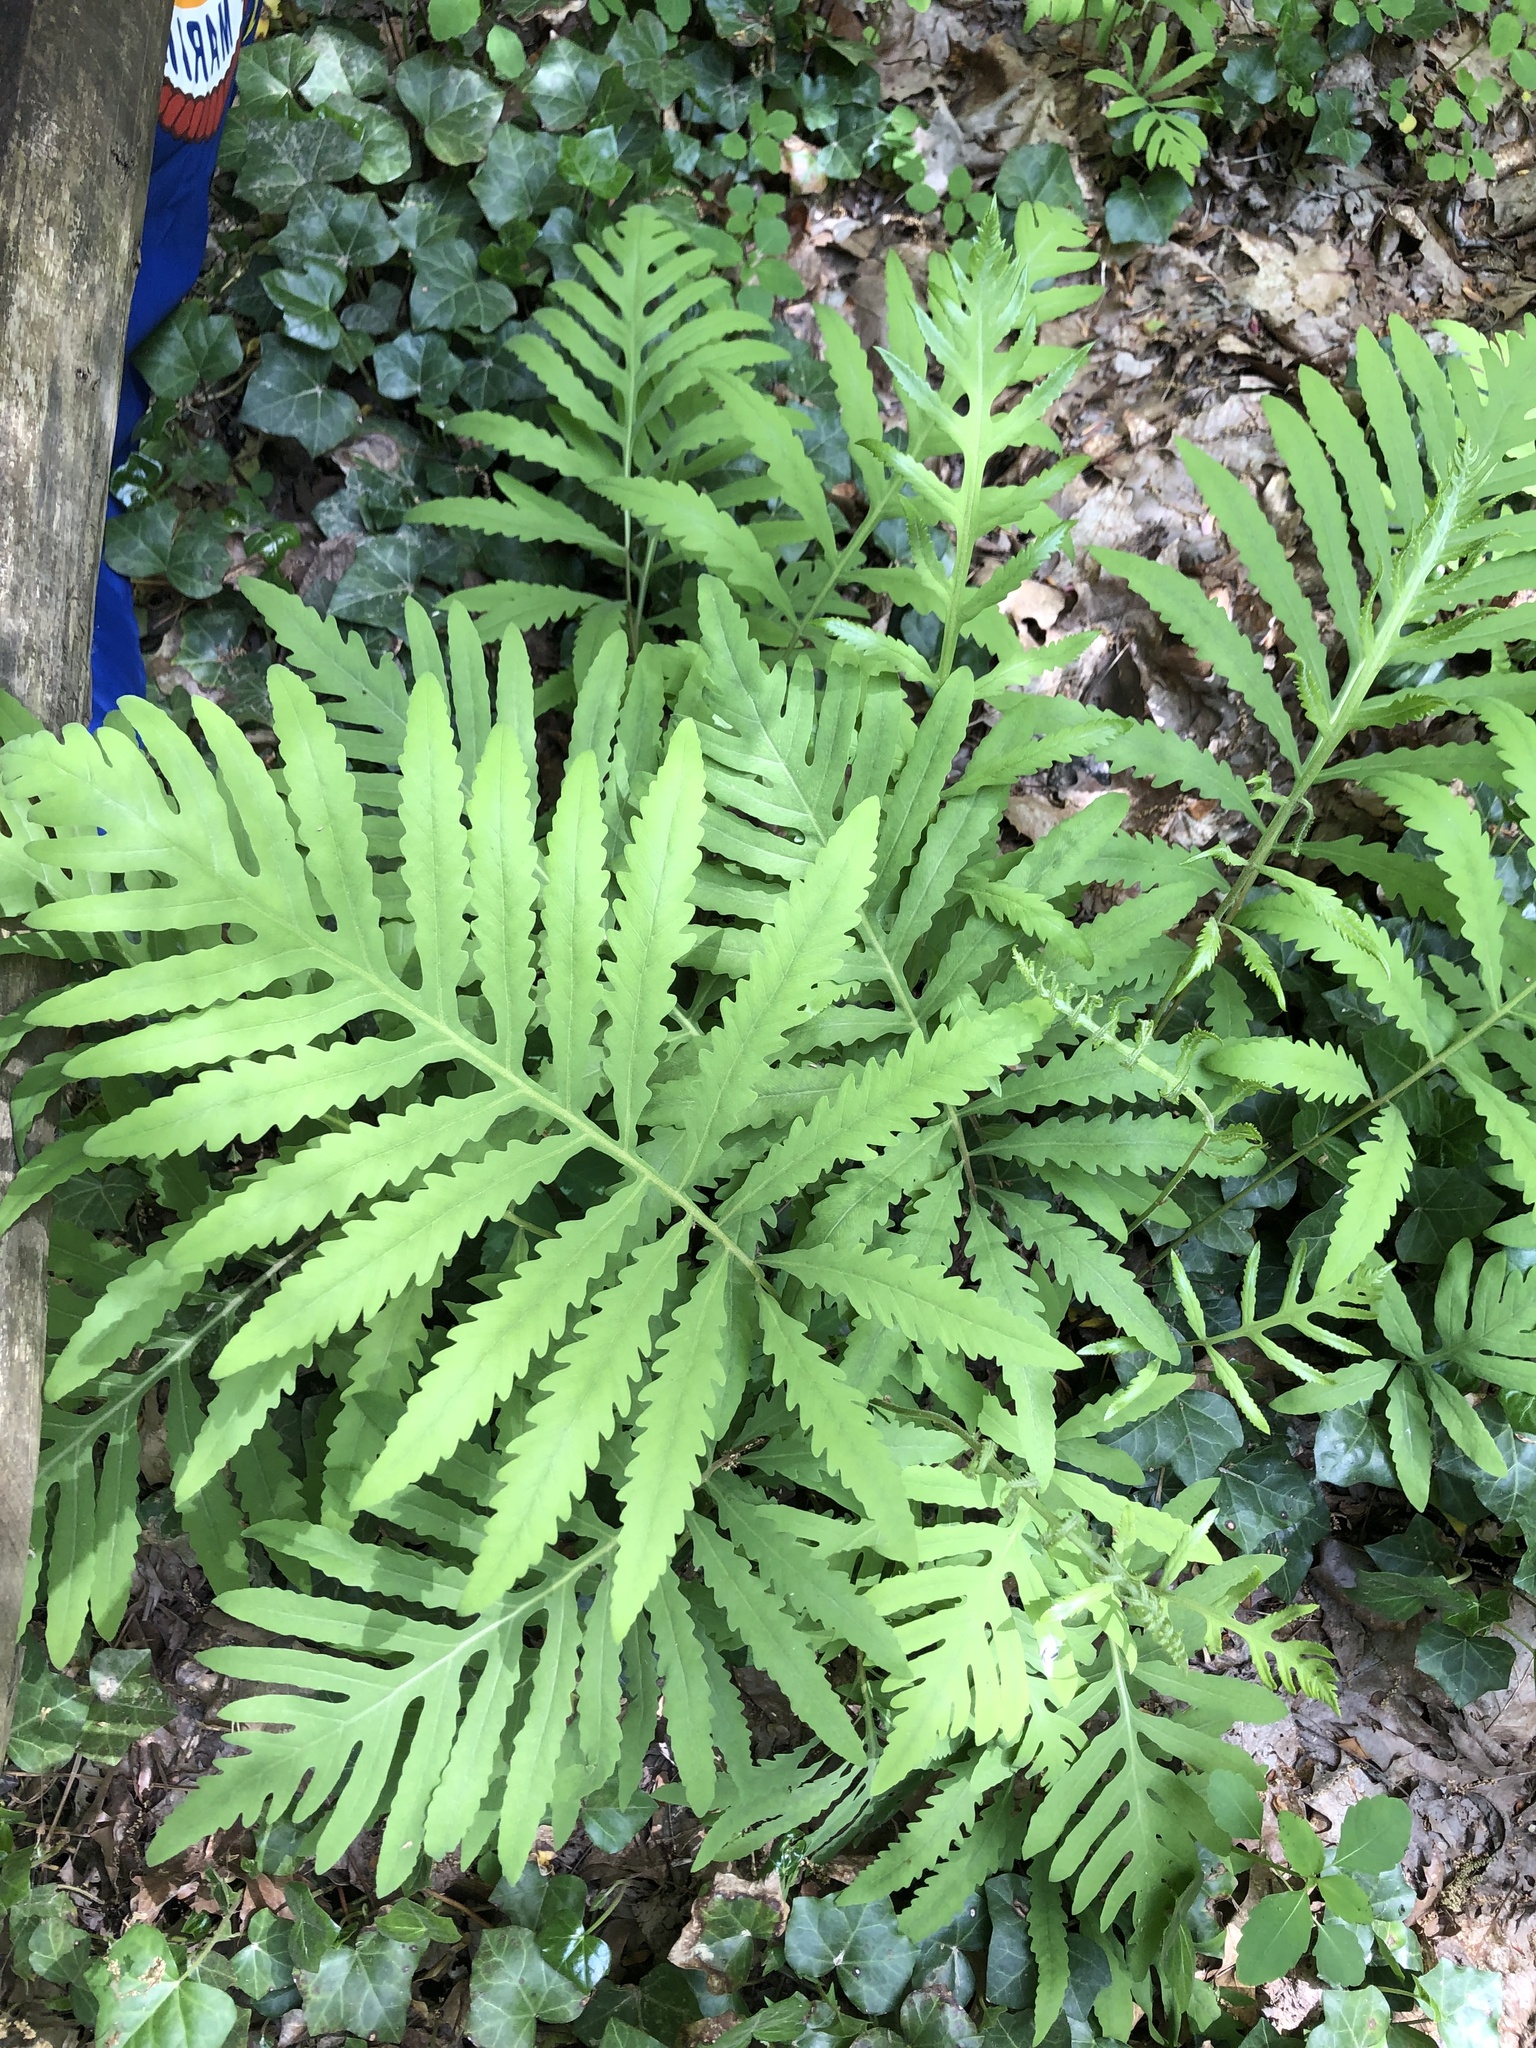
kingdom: Plantae
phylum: Tracheophyta
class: Polypodiopsida
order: Polypodiales
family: Onocleaceae
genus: Onoclea
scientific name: Onoclea sensibilis
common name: Sensitive fern
